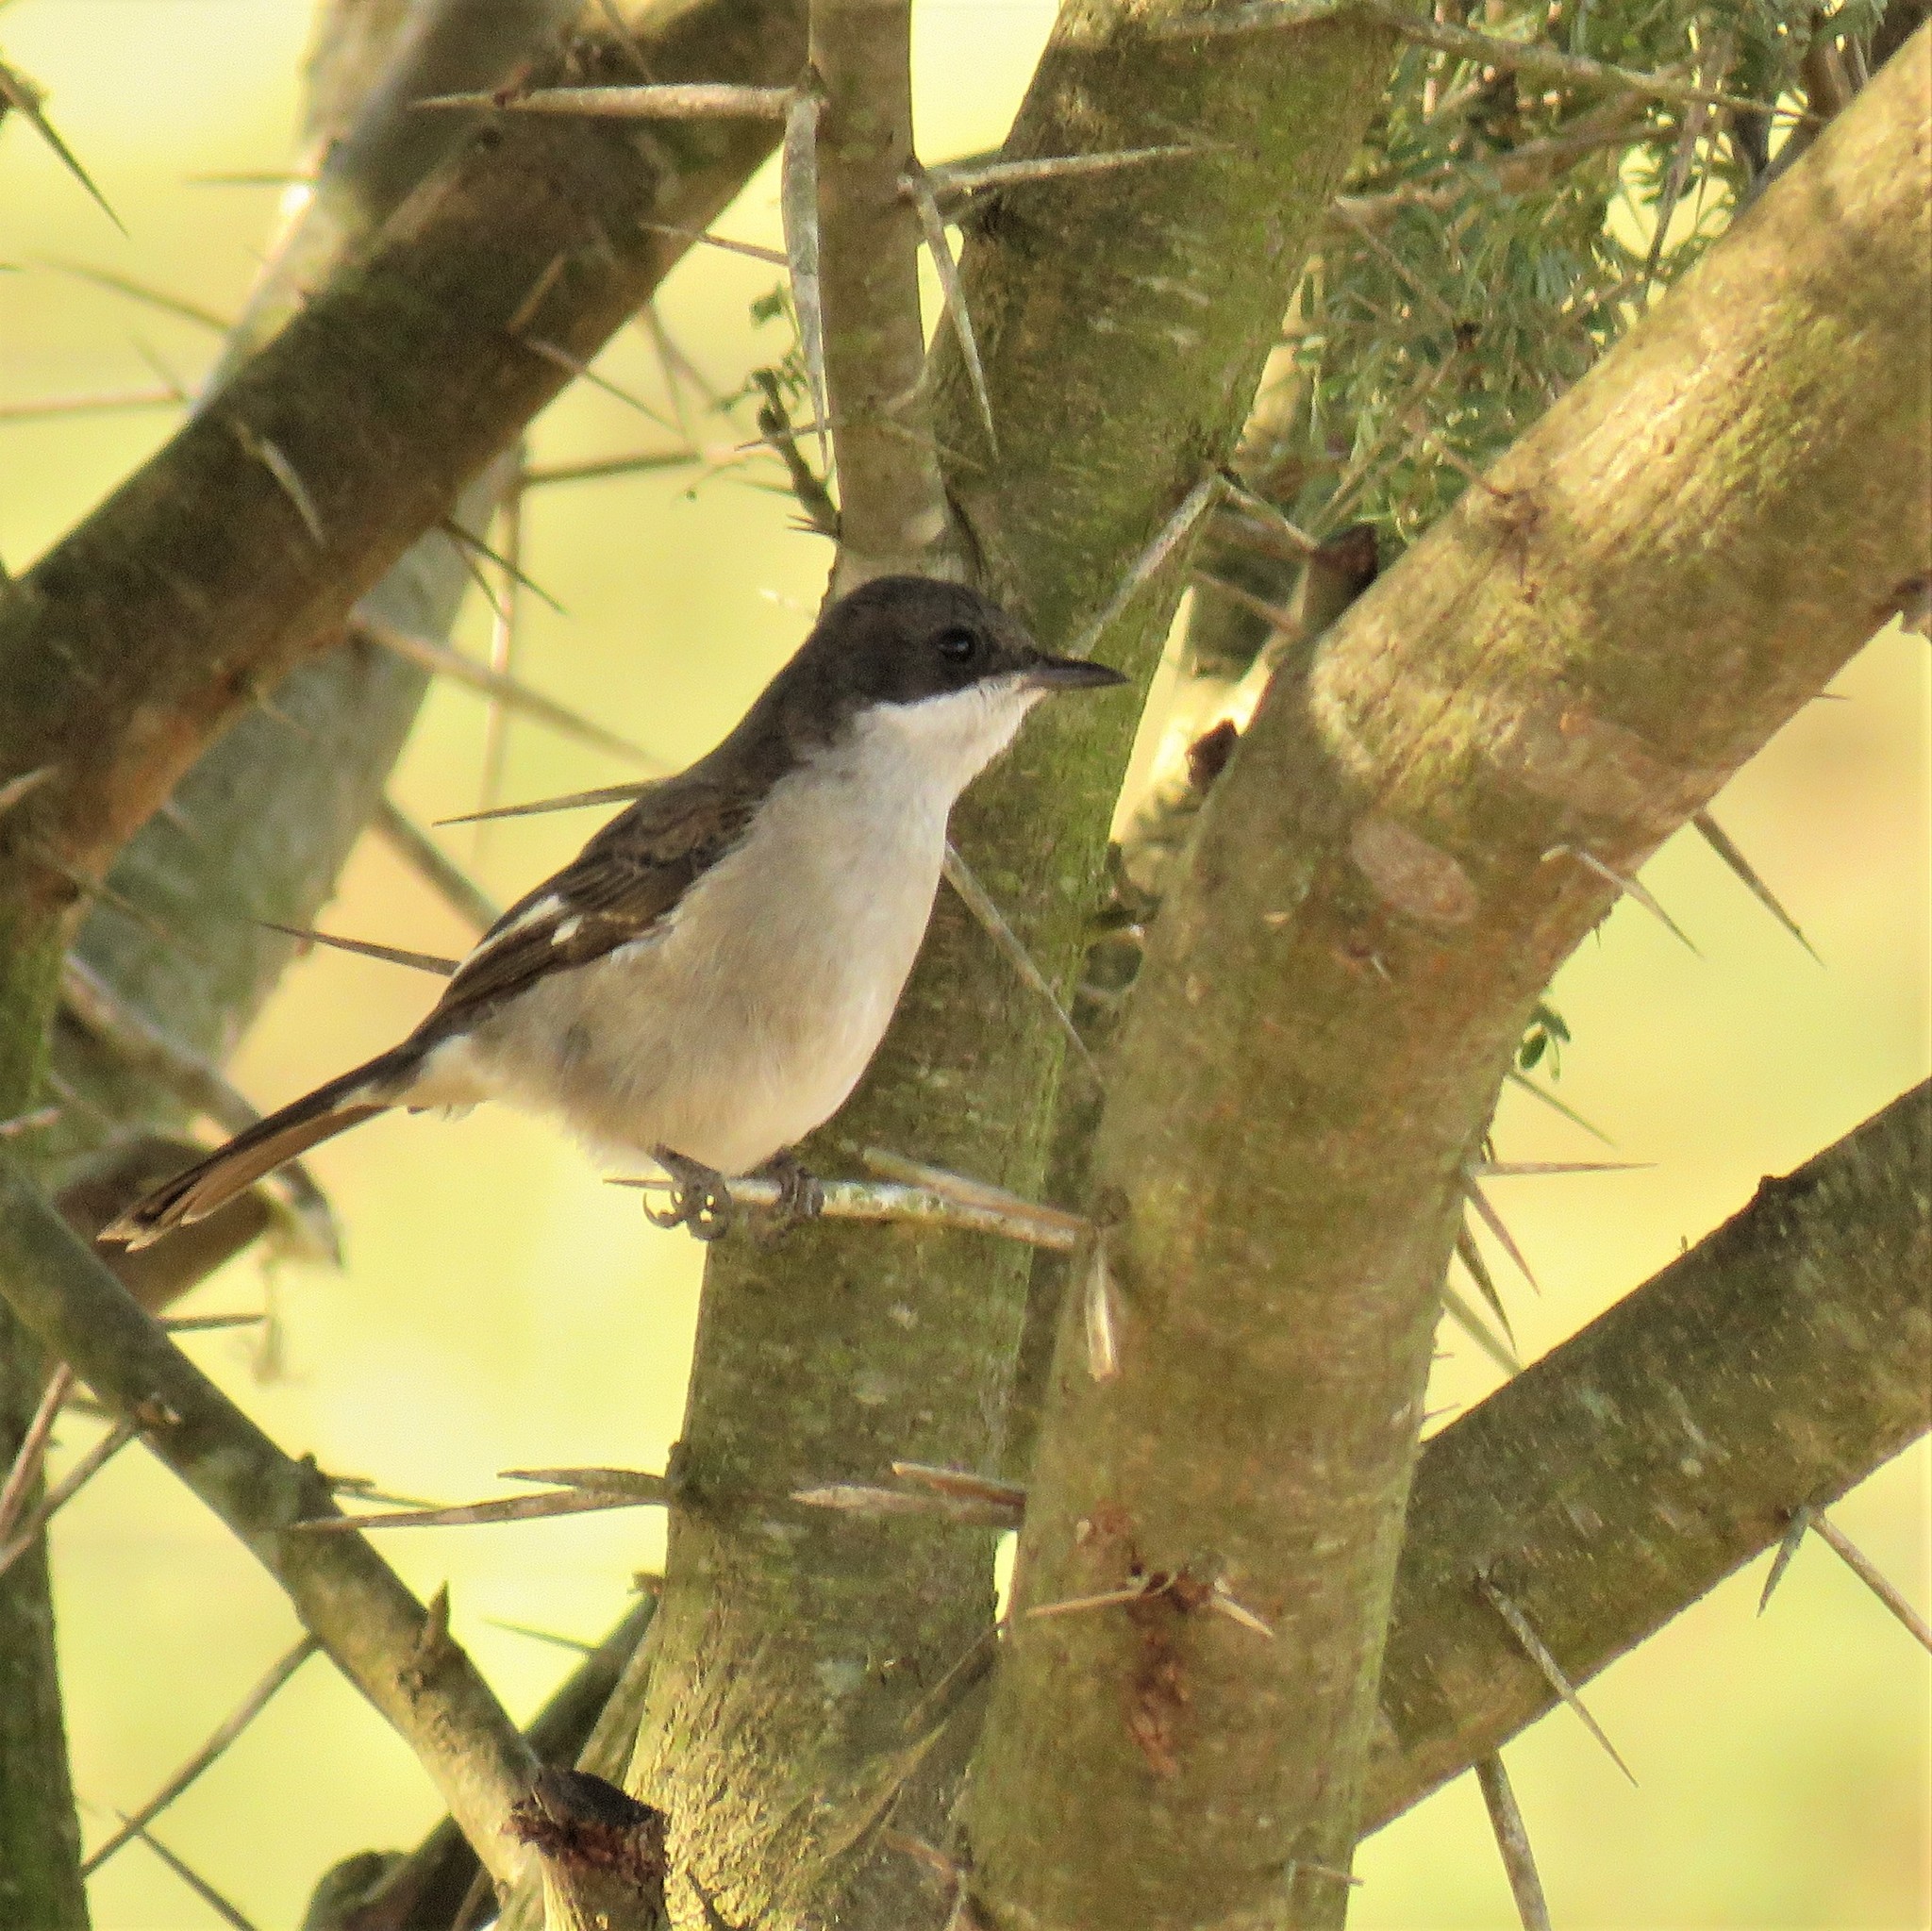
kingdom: Animalia
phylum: Chordata
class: Aves
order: Passeriformes
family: Muscicapidae
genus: Sigelus
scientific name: Sigelus silens
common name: Fiscal flycatcher
